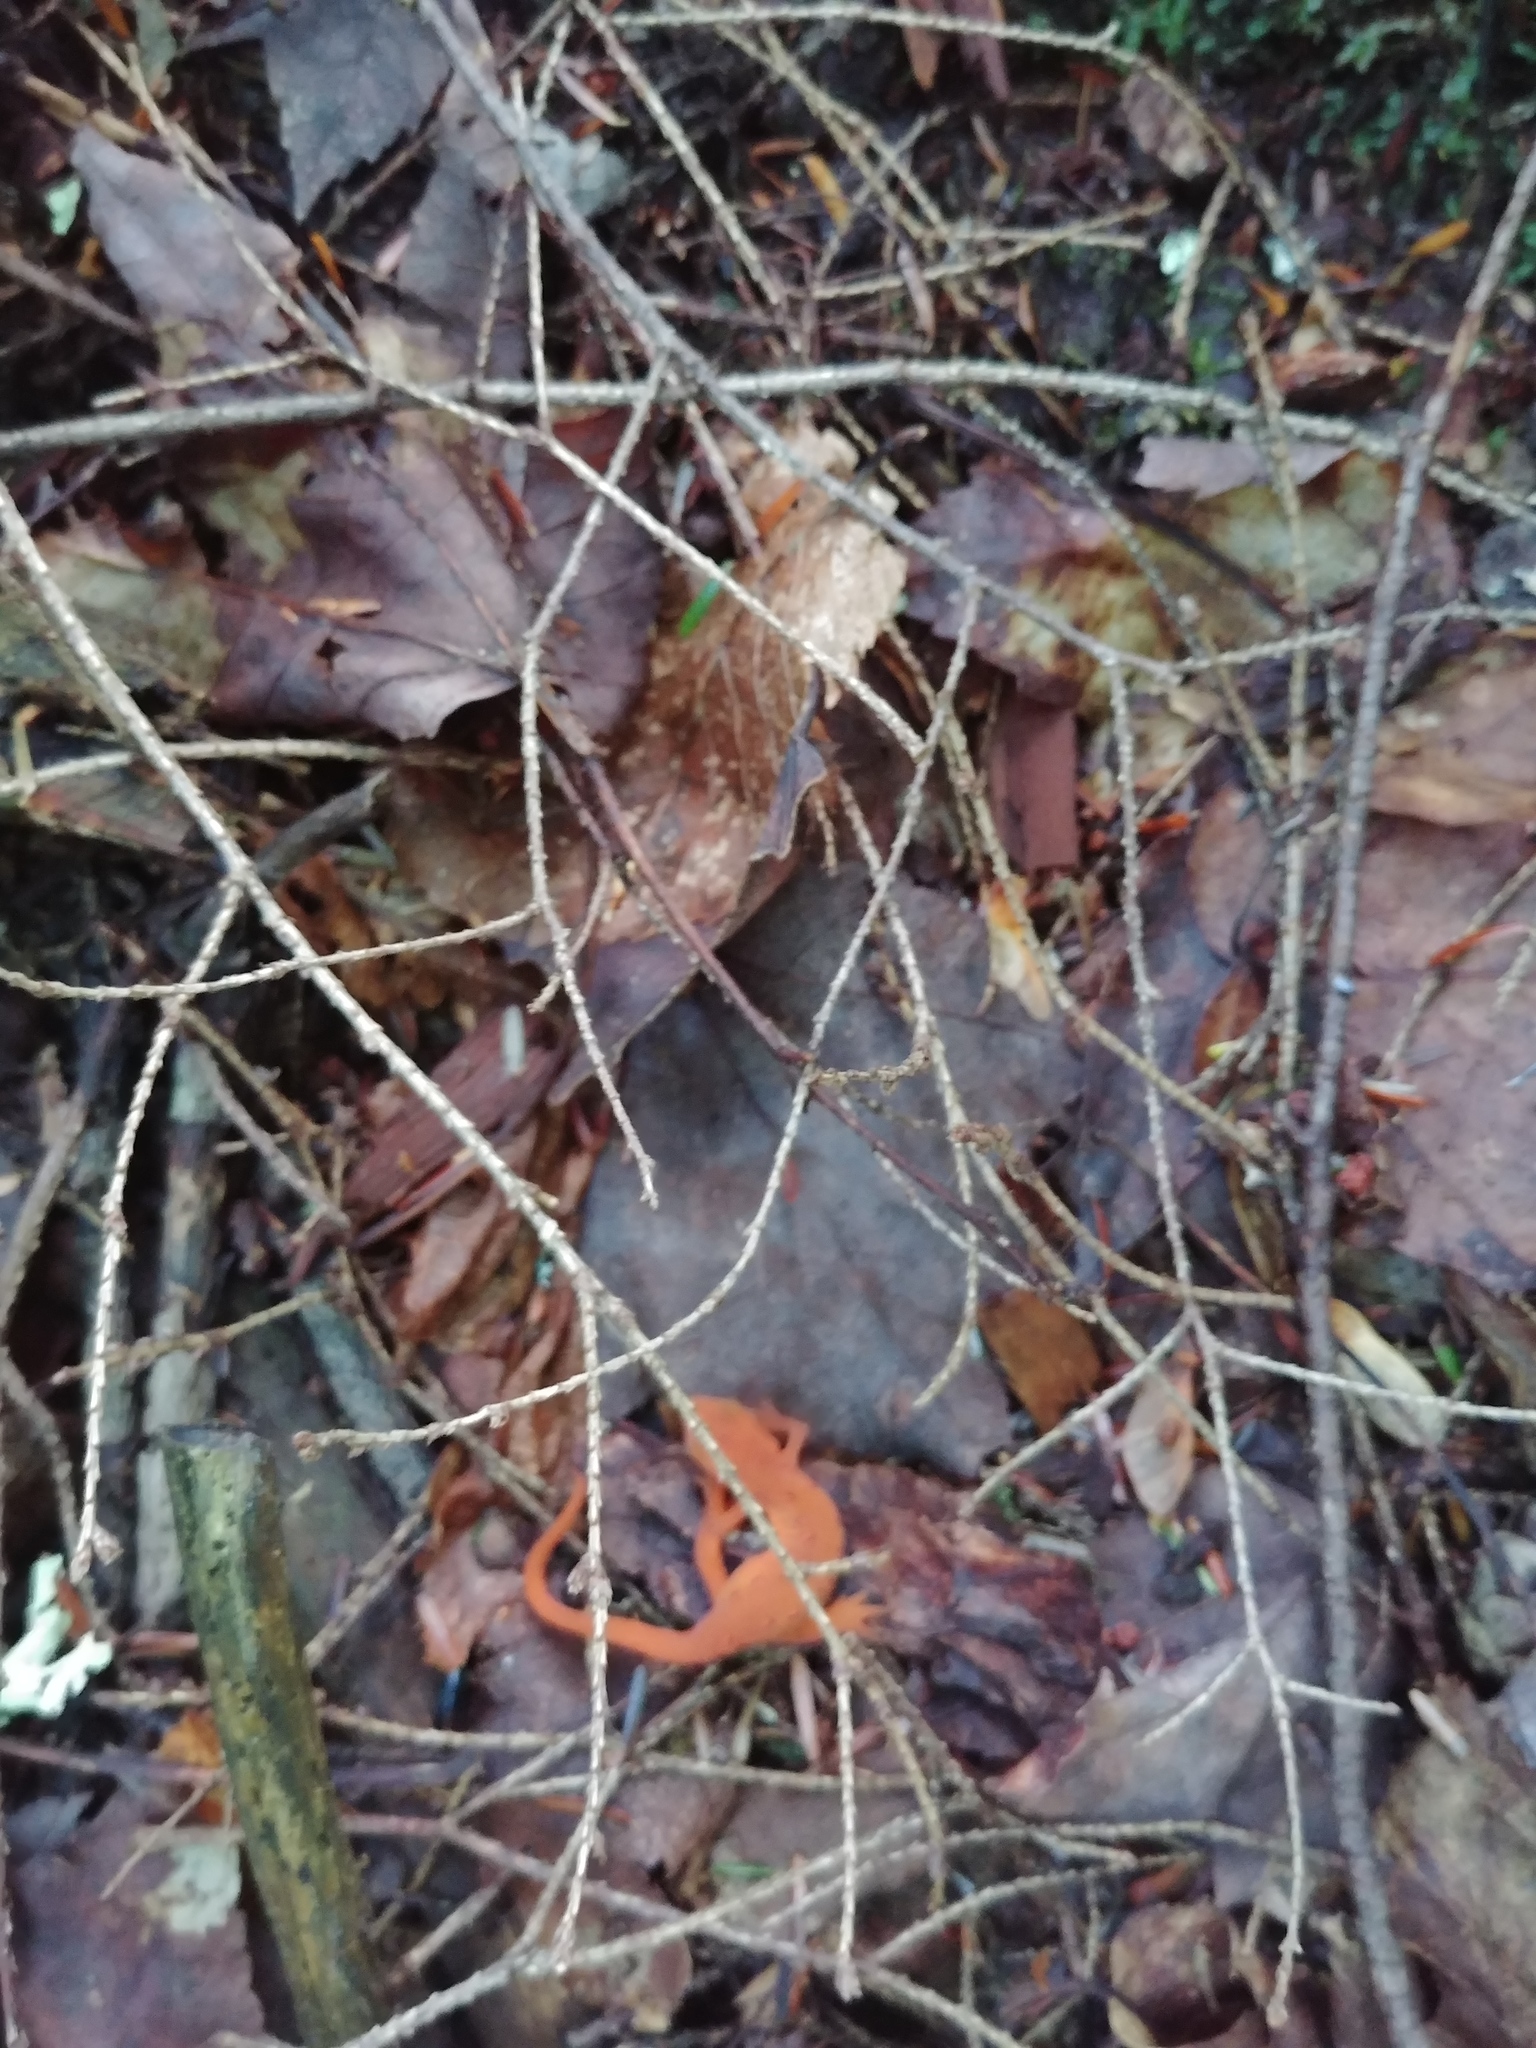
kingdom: Animalia
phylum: Chordata
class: Amphibia
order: Caudata
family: Salamandridae
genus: Notophthalmus
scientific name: Notophthalmus viridescens
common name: Eastern newt
